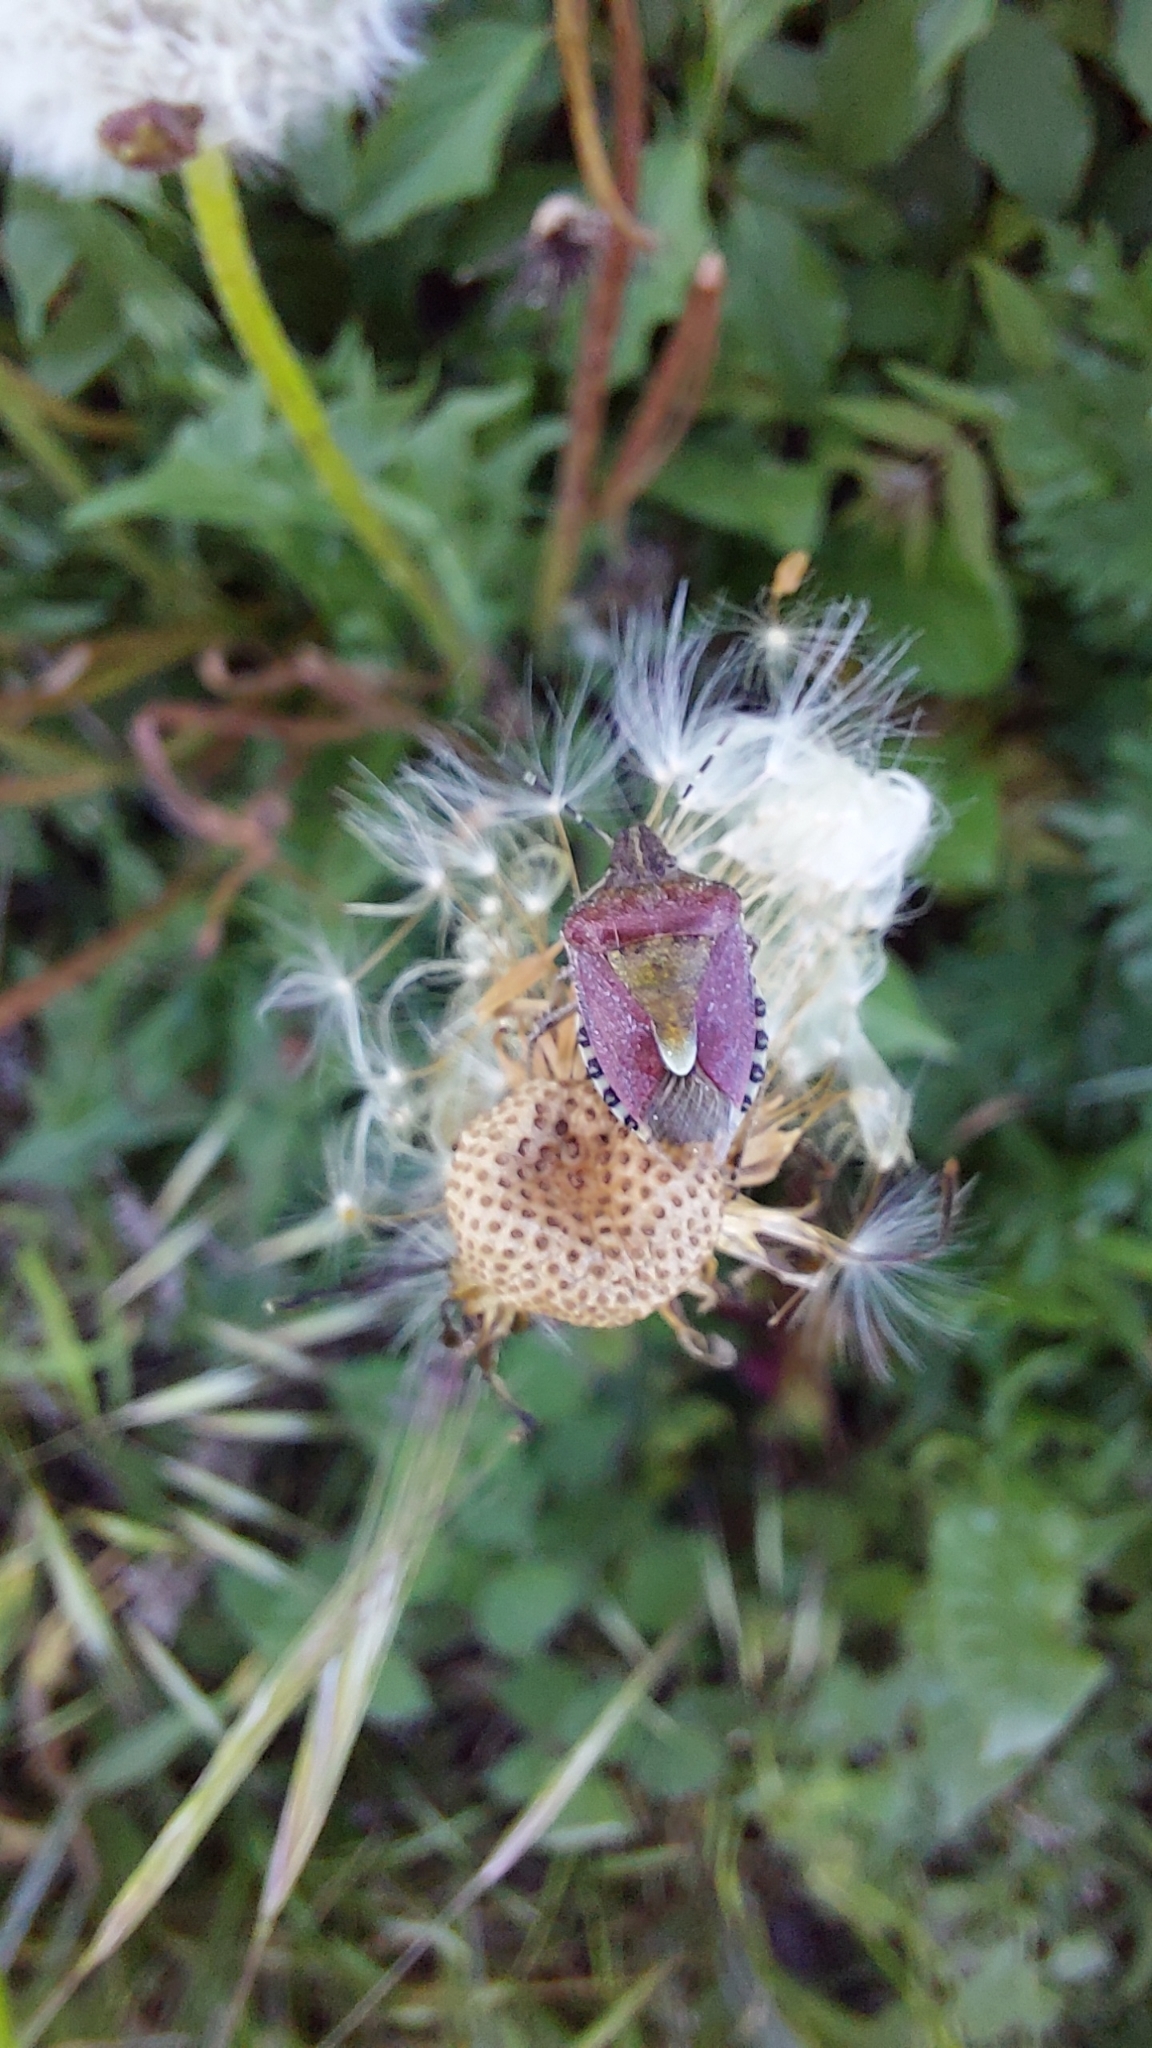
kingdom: Animalia
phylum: Arthropoda
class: Insecta
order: Hemiptera
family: Pentatomidae
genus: Dolycoris
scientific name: Dolycoris baccarum
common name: Sloe bug
